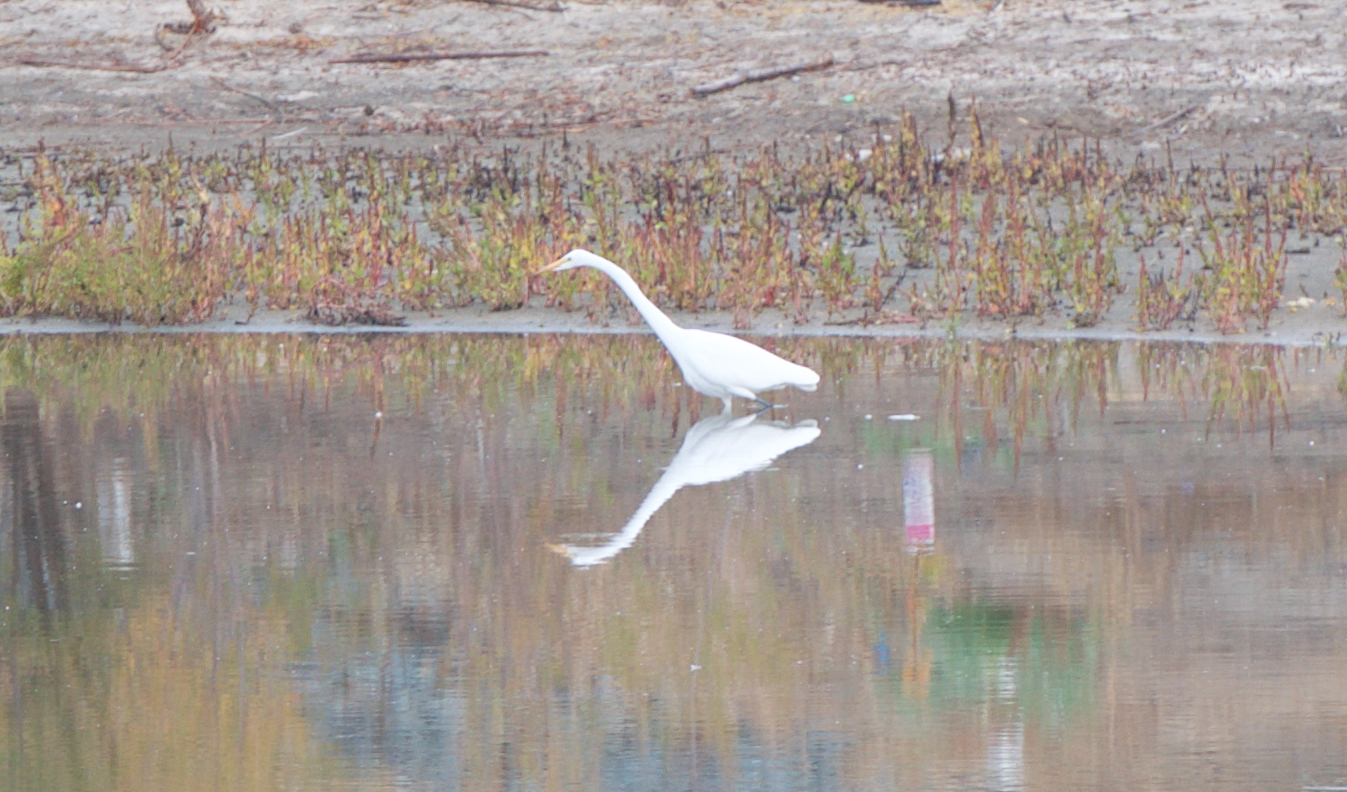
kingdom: Animalia
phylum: Chordata
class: Aves
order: Pelecaniformes
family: Ardeidae
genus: Ardea
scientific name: Ardea alba
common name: Great egret
